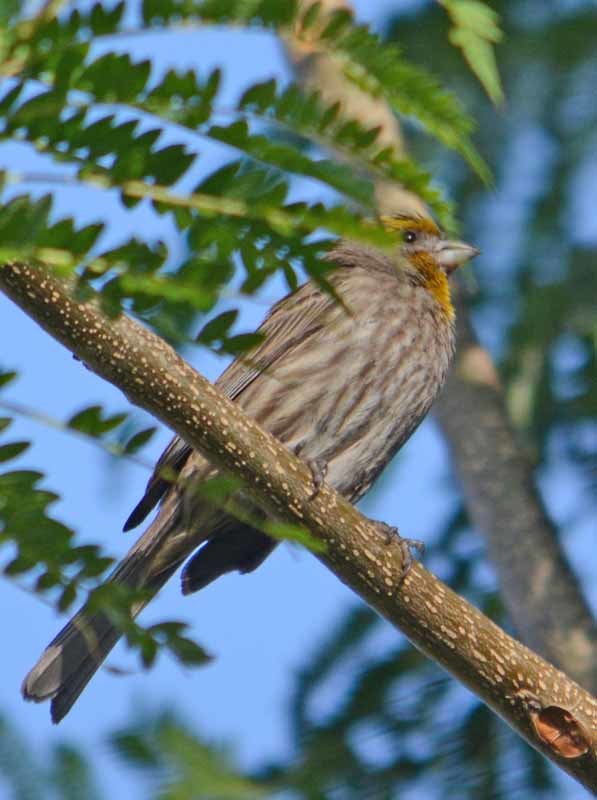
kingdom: Animalia
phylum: Chordata
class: Aves
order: Passeriformes
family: Fringillidae
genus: Haemorhous
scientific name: Haemorhous mexicanus
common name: House finch
